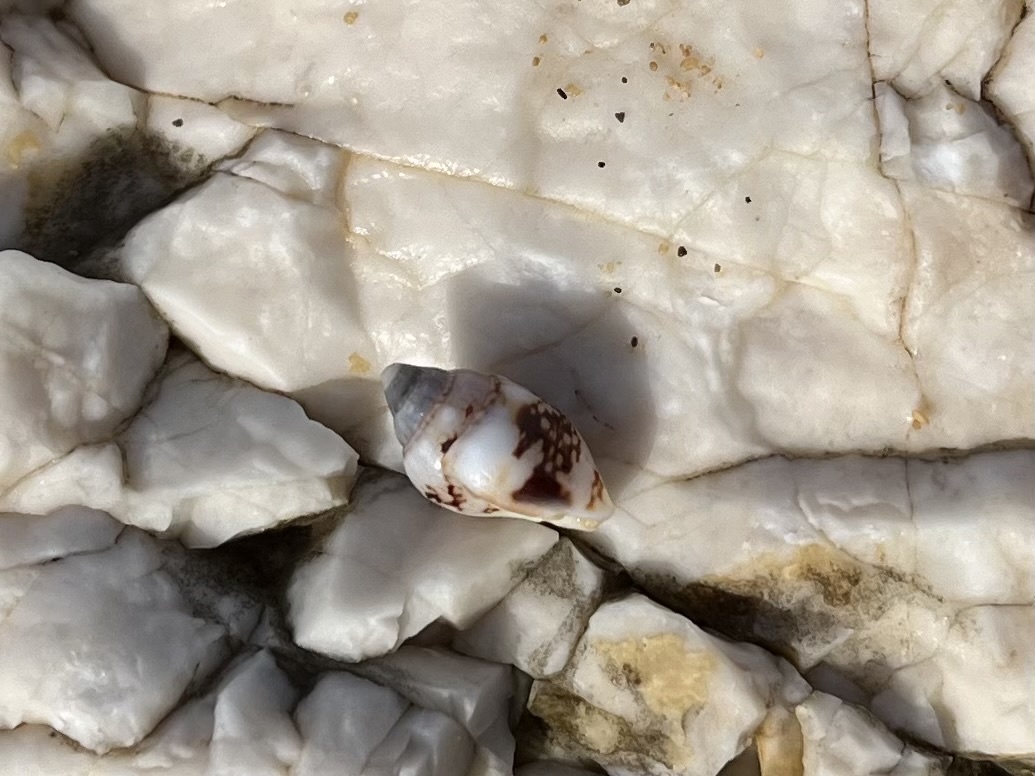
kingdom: Animalia
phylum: Mollusca
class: Gastropoda
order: Neogastropoda
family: Columbellidae
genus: Columbella
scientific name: Columbella rustica
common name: Rustic dove shell
